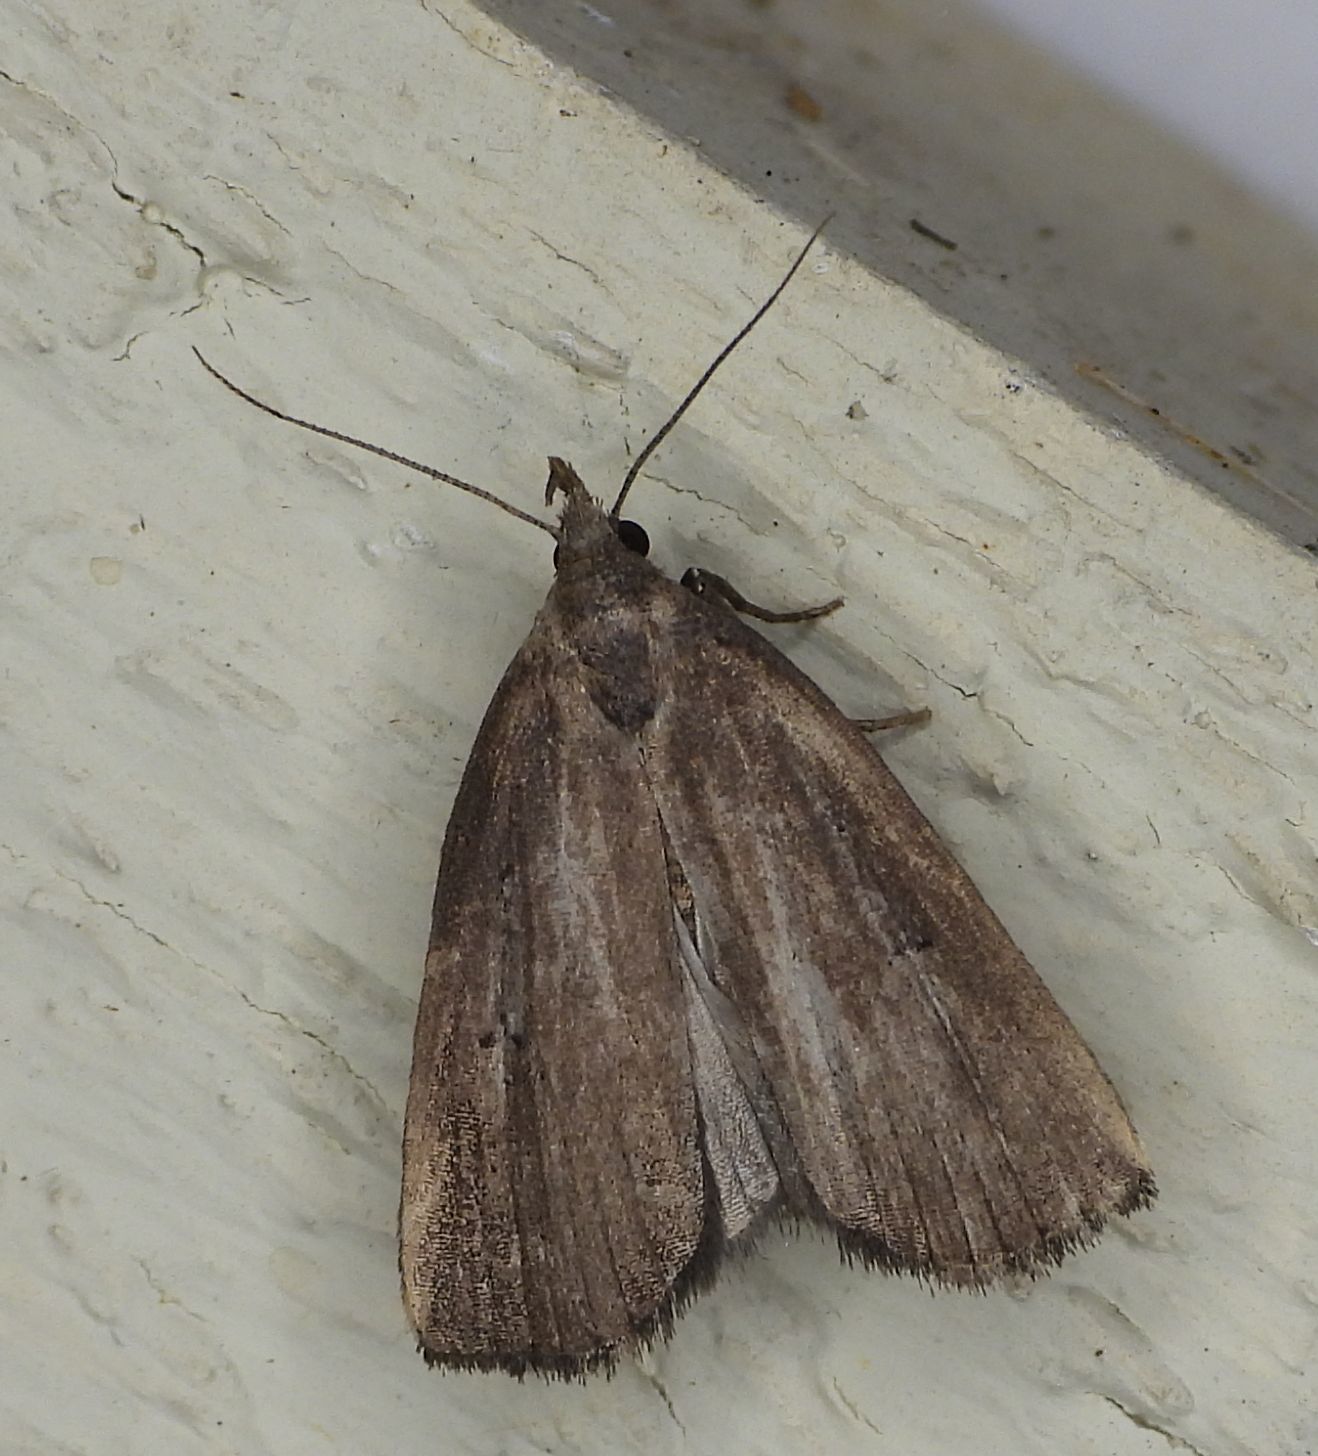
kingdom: Animalia
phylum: Arthropoda
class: Insecta
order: Lepidoptera
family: Erebidae
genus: Macrochilo
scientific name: Macrochilo orciferalis
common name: Bronzy owlet
